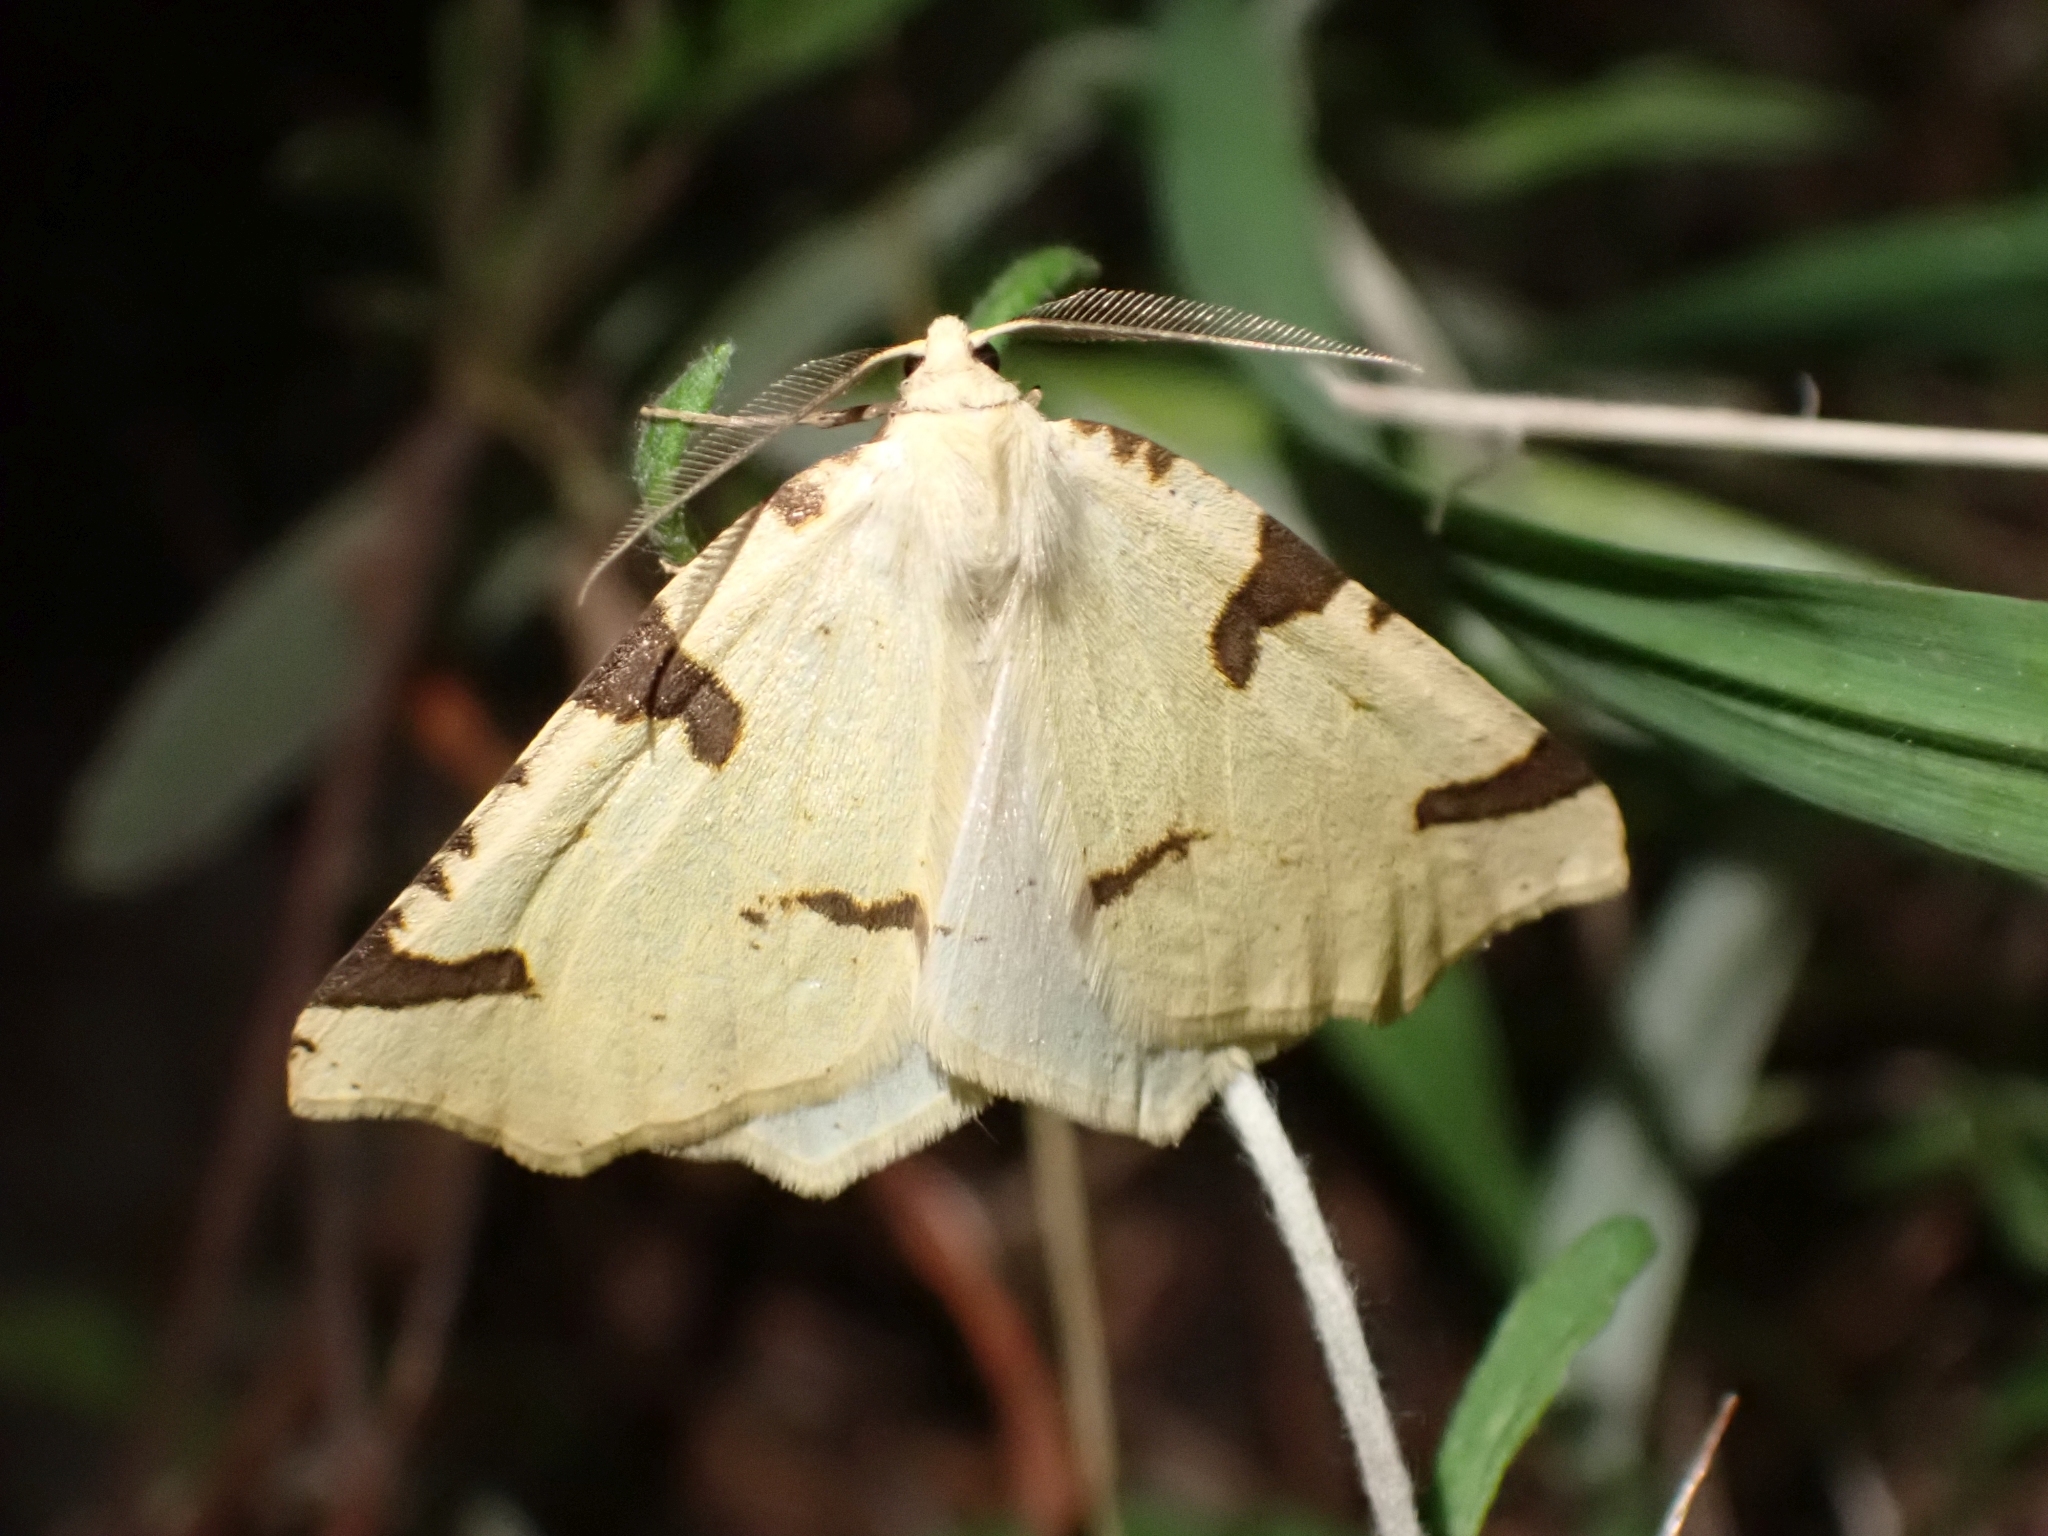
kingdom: Animalia
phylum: Arthropoda
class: Insecta
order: Lepidoptera
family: Geometridae
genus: Neoterpes
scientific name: Neoterpes trianguliferata
